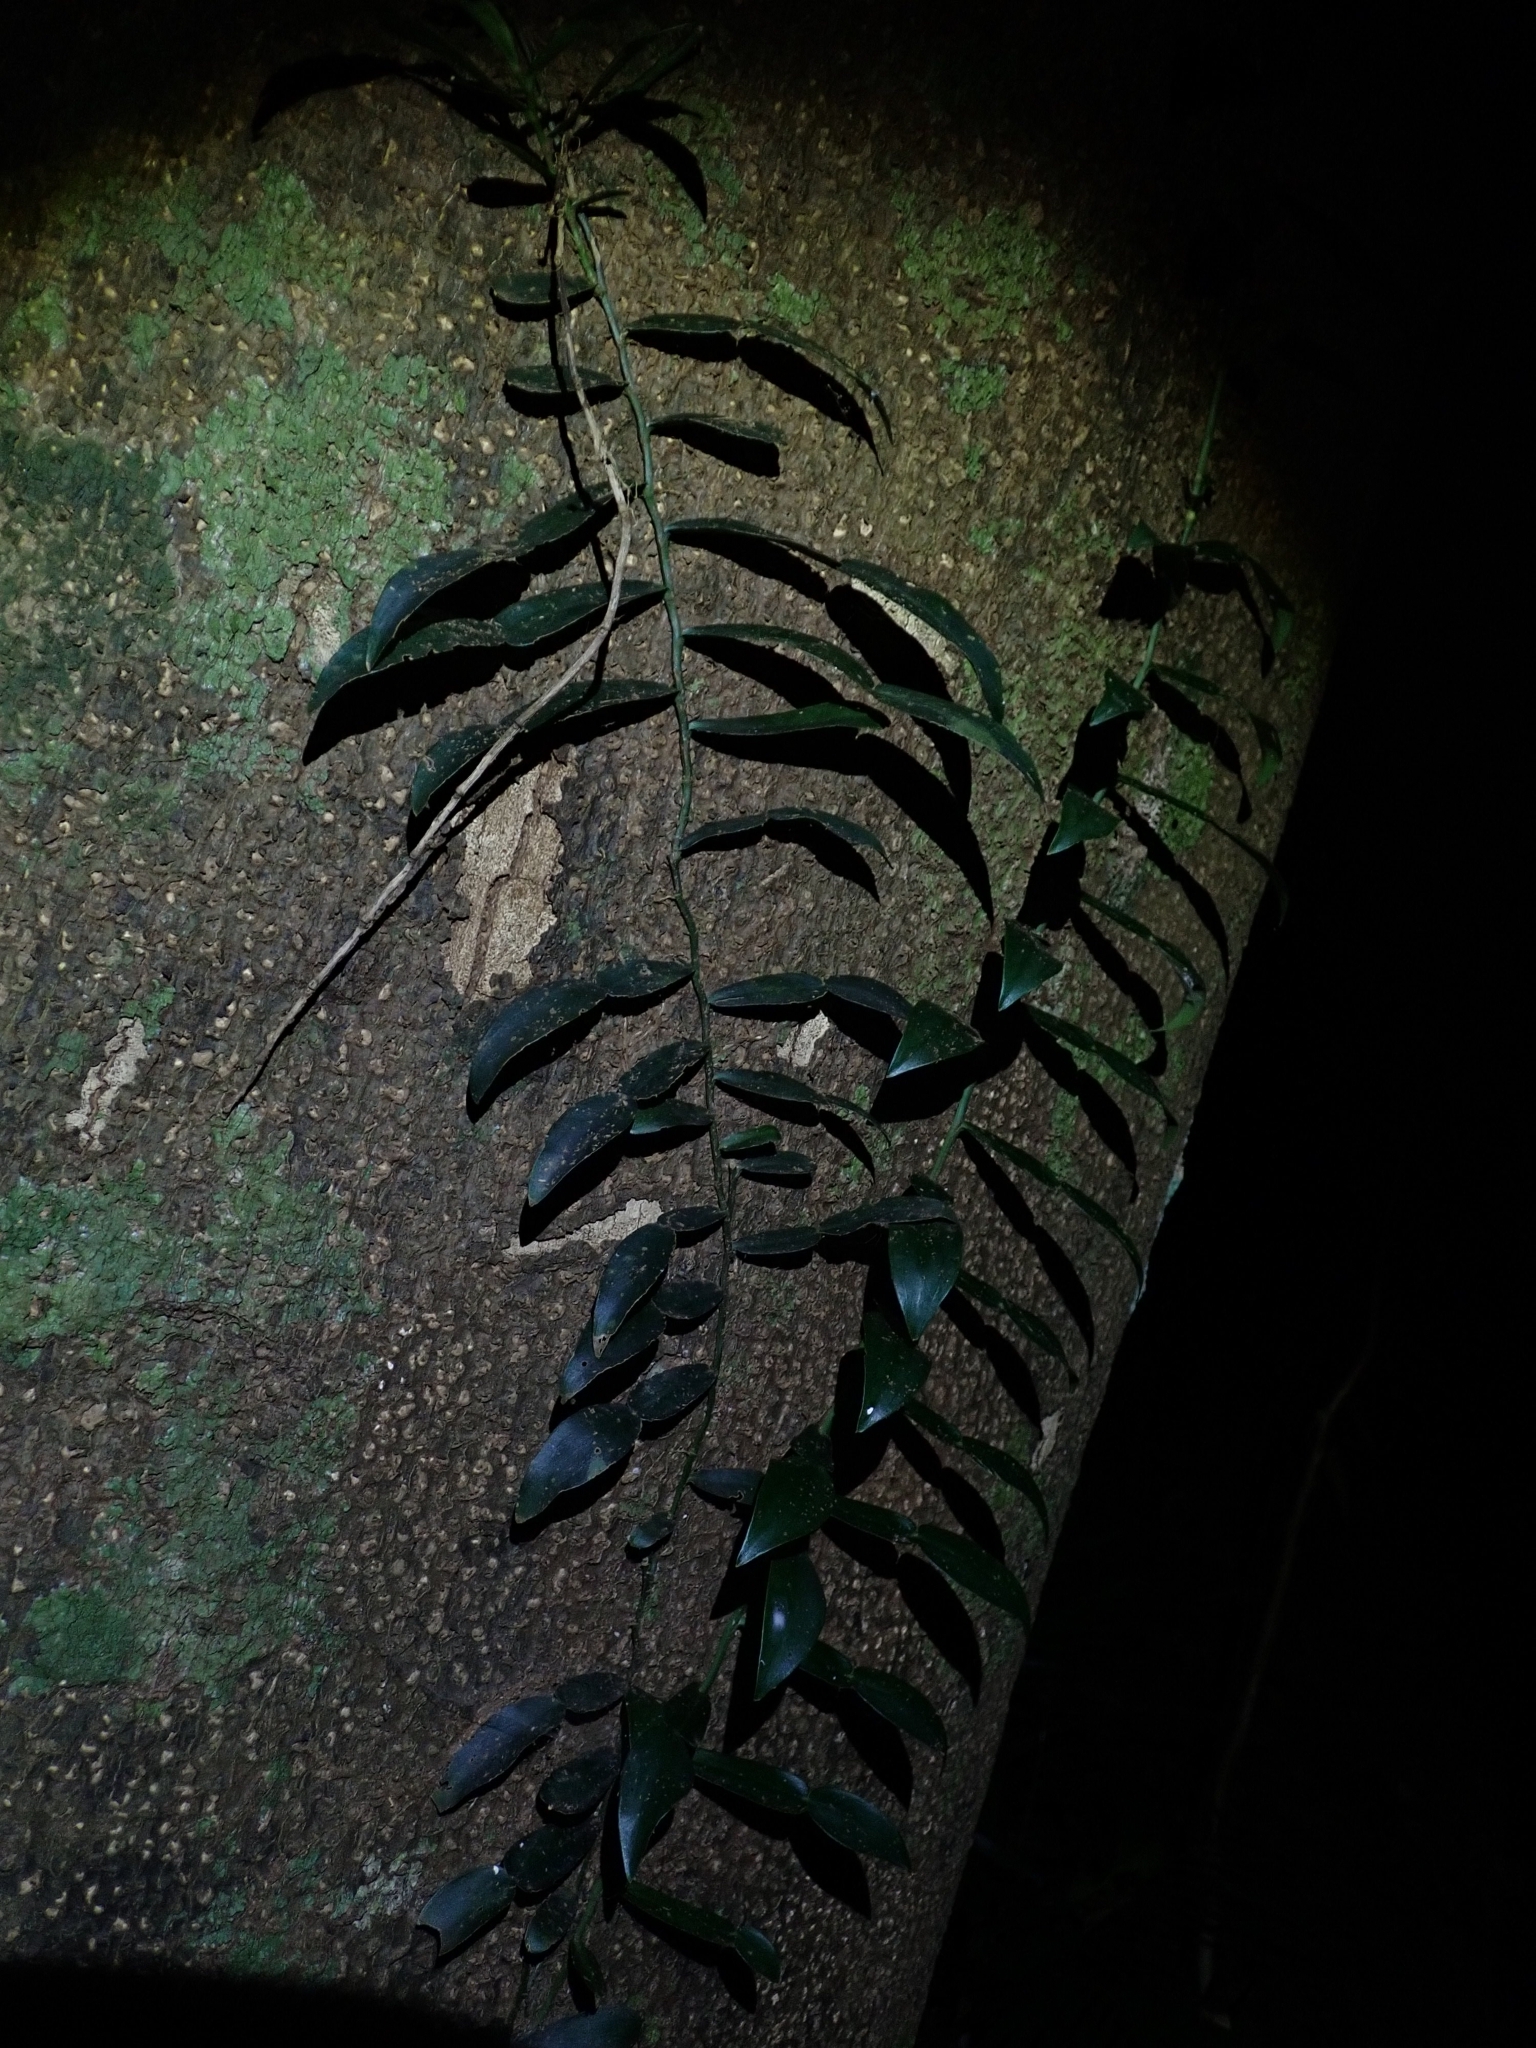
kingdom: Plantae
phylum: Tracheophyta
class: Liliopsida
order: Alismatales
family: Araceae
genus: Pothos
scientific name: Pothos longipes
